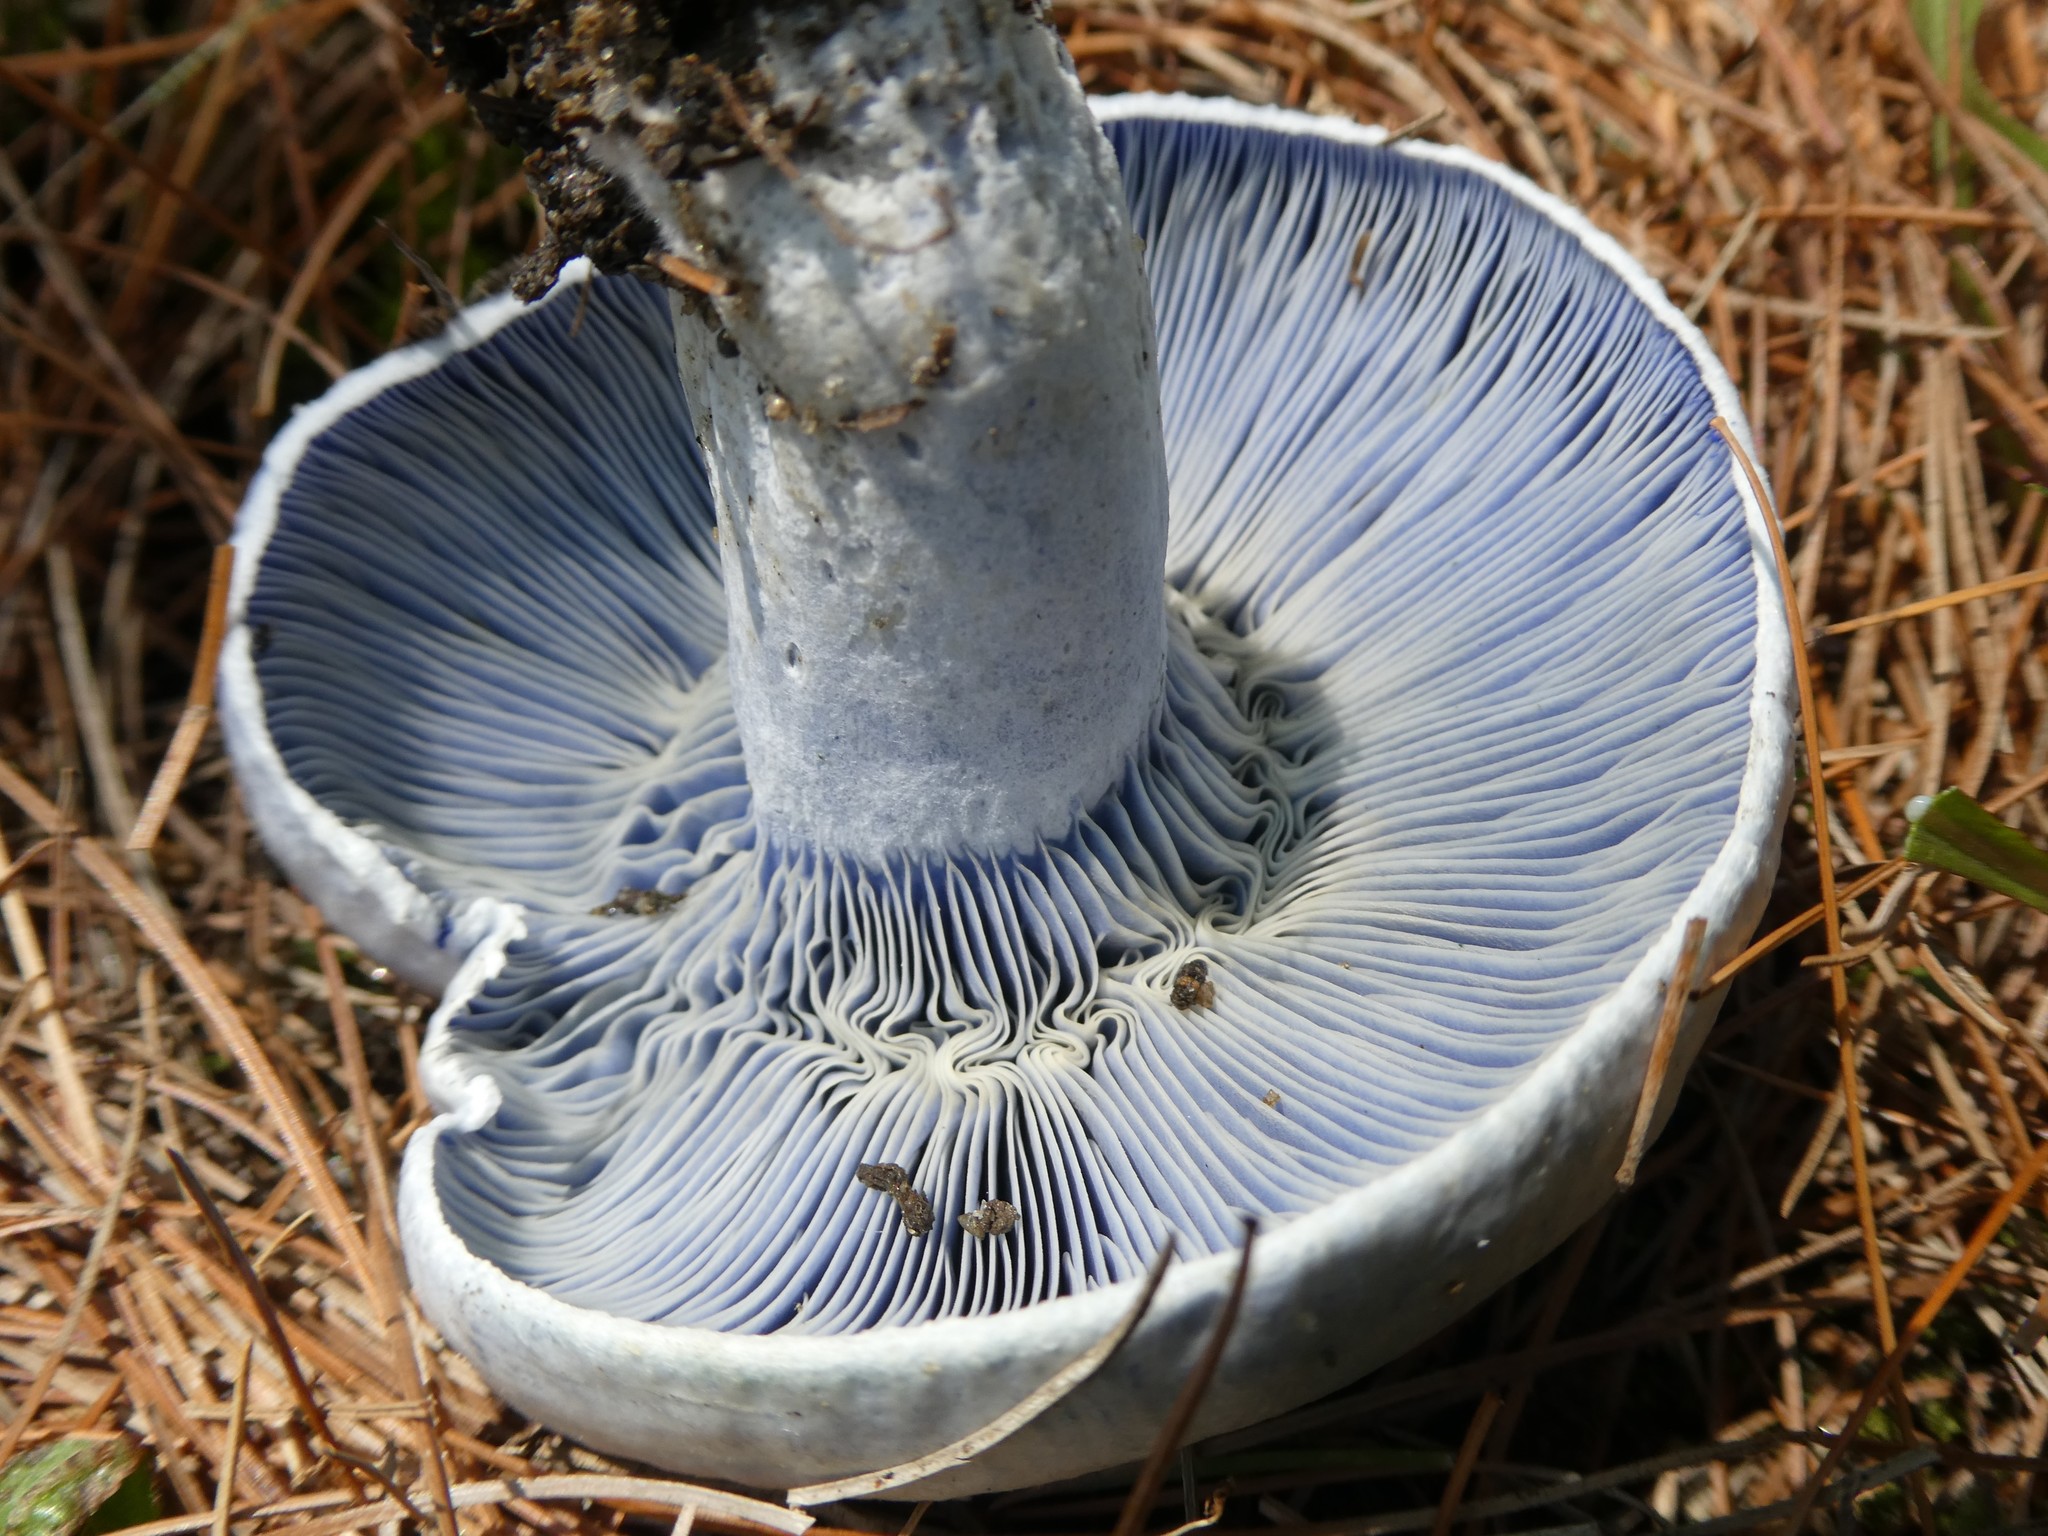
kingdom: Fungi
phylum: Basidiomycota
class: Agaricomycetes
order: Russulales
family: Russulaceae
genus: Lactarius
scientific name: Lactarius indigo
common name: Indigo milk cap
